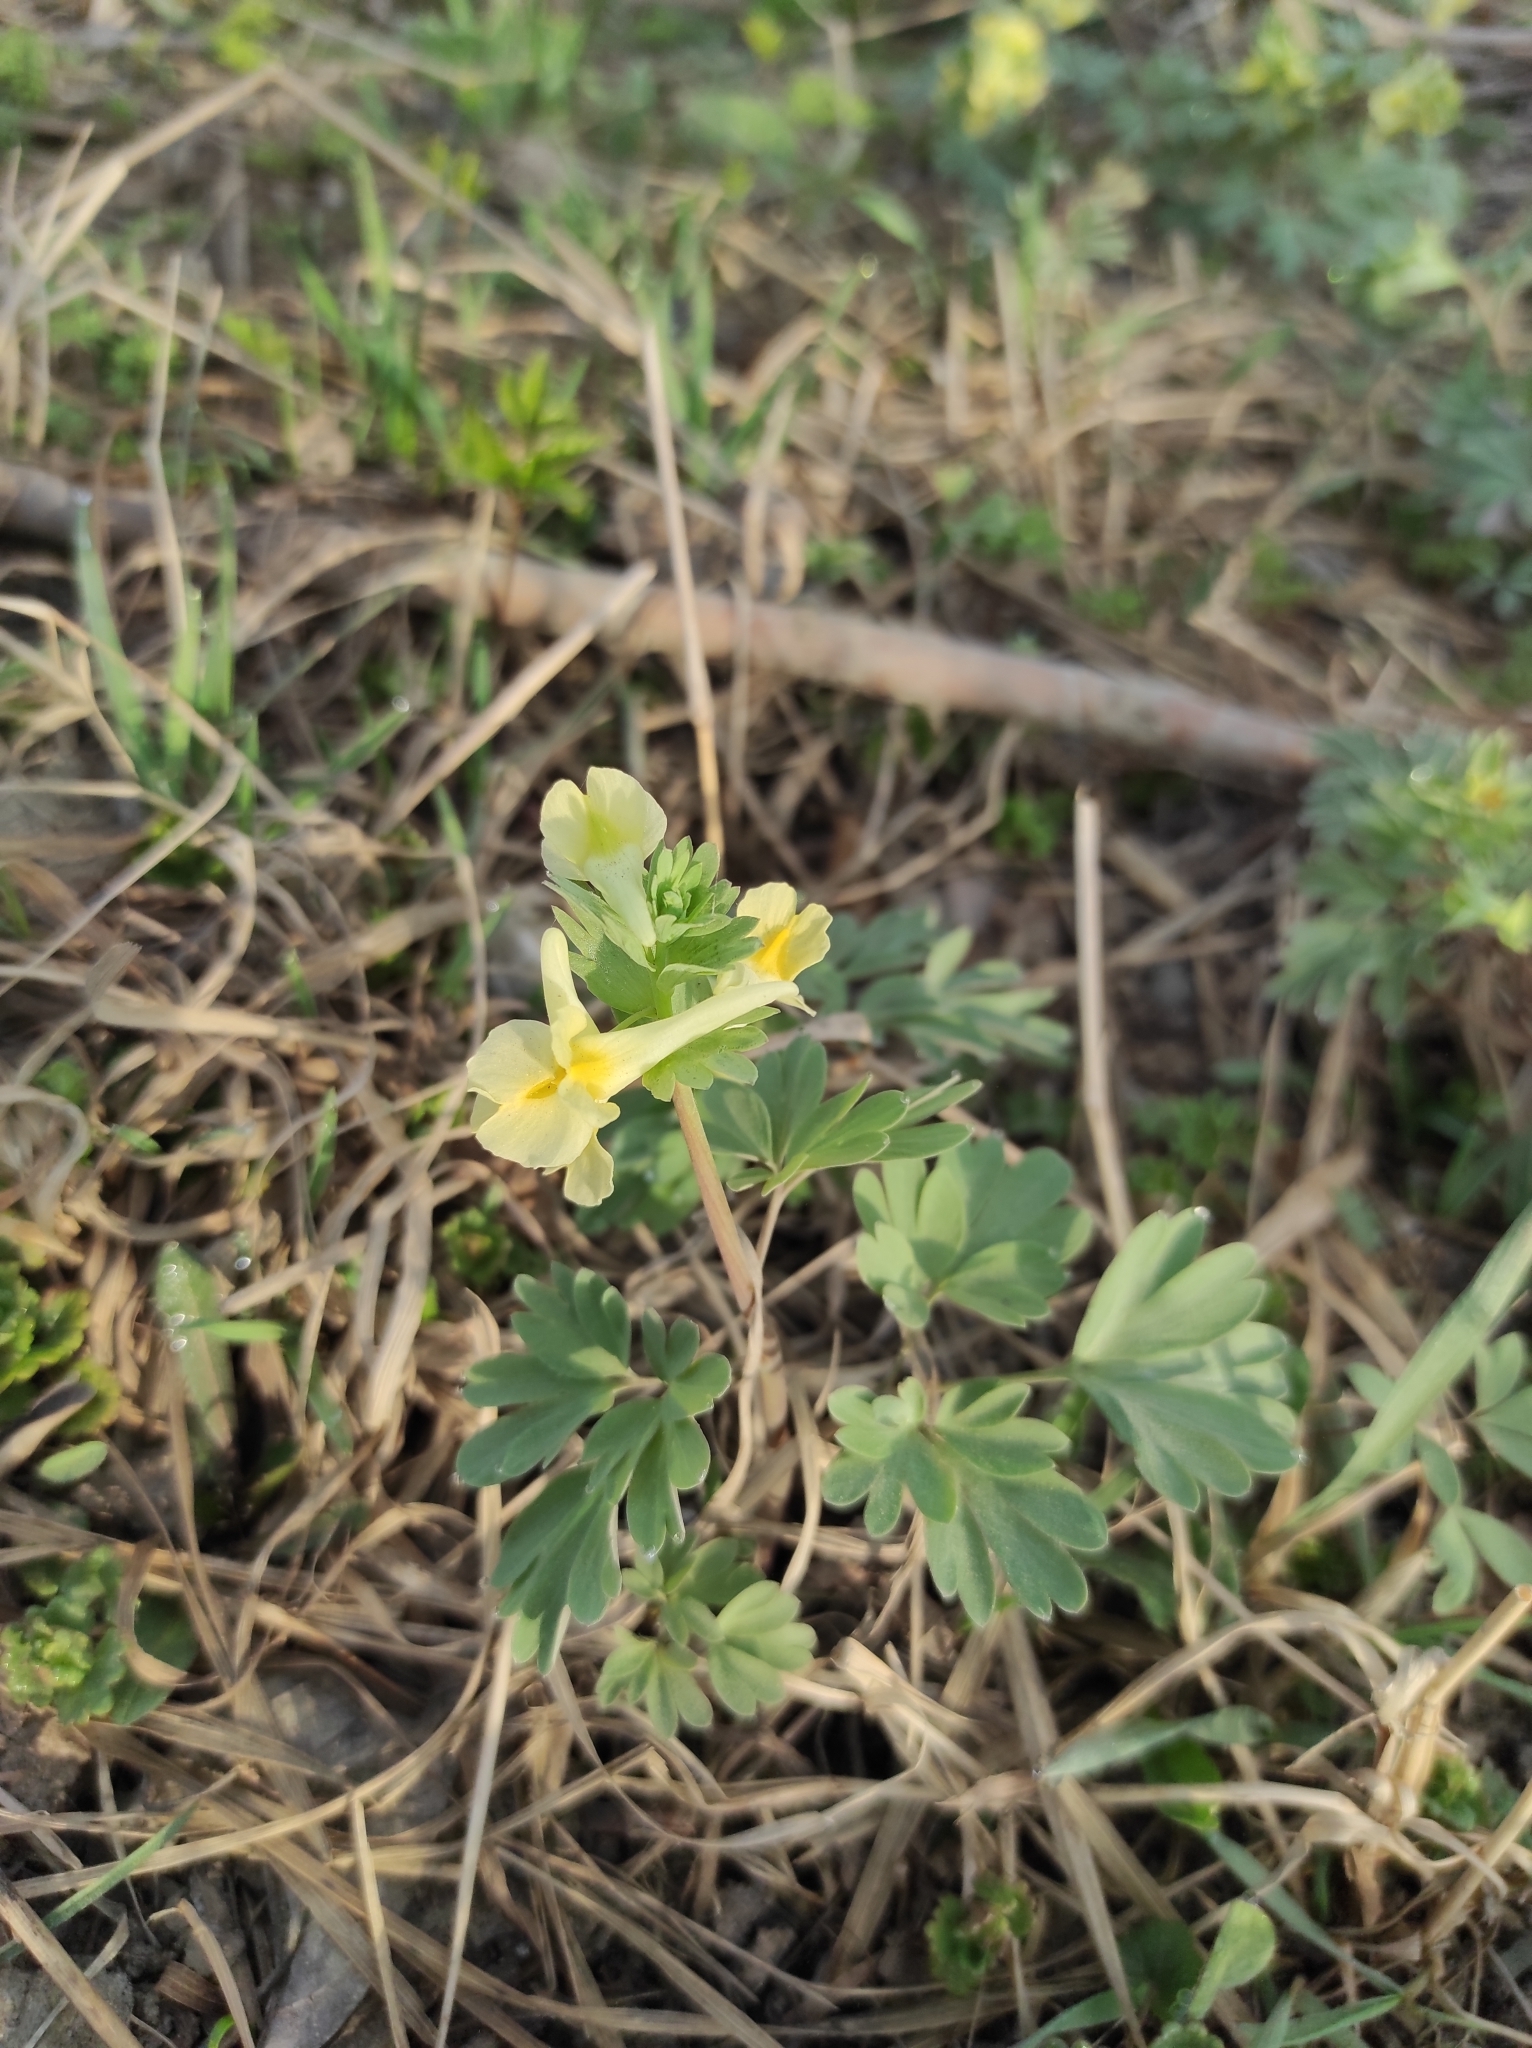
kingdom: Plantae
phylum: Tracheophyta
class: Magnoliopsida
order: Ranunculales
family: Papaveraceae
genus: Corydalis
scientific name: Corydalis bracteata
